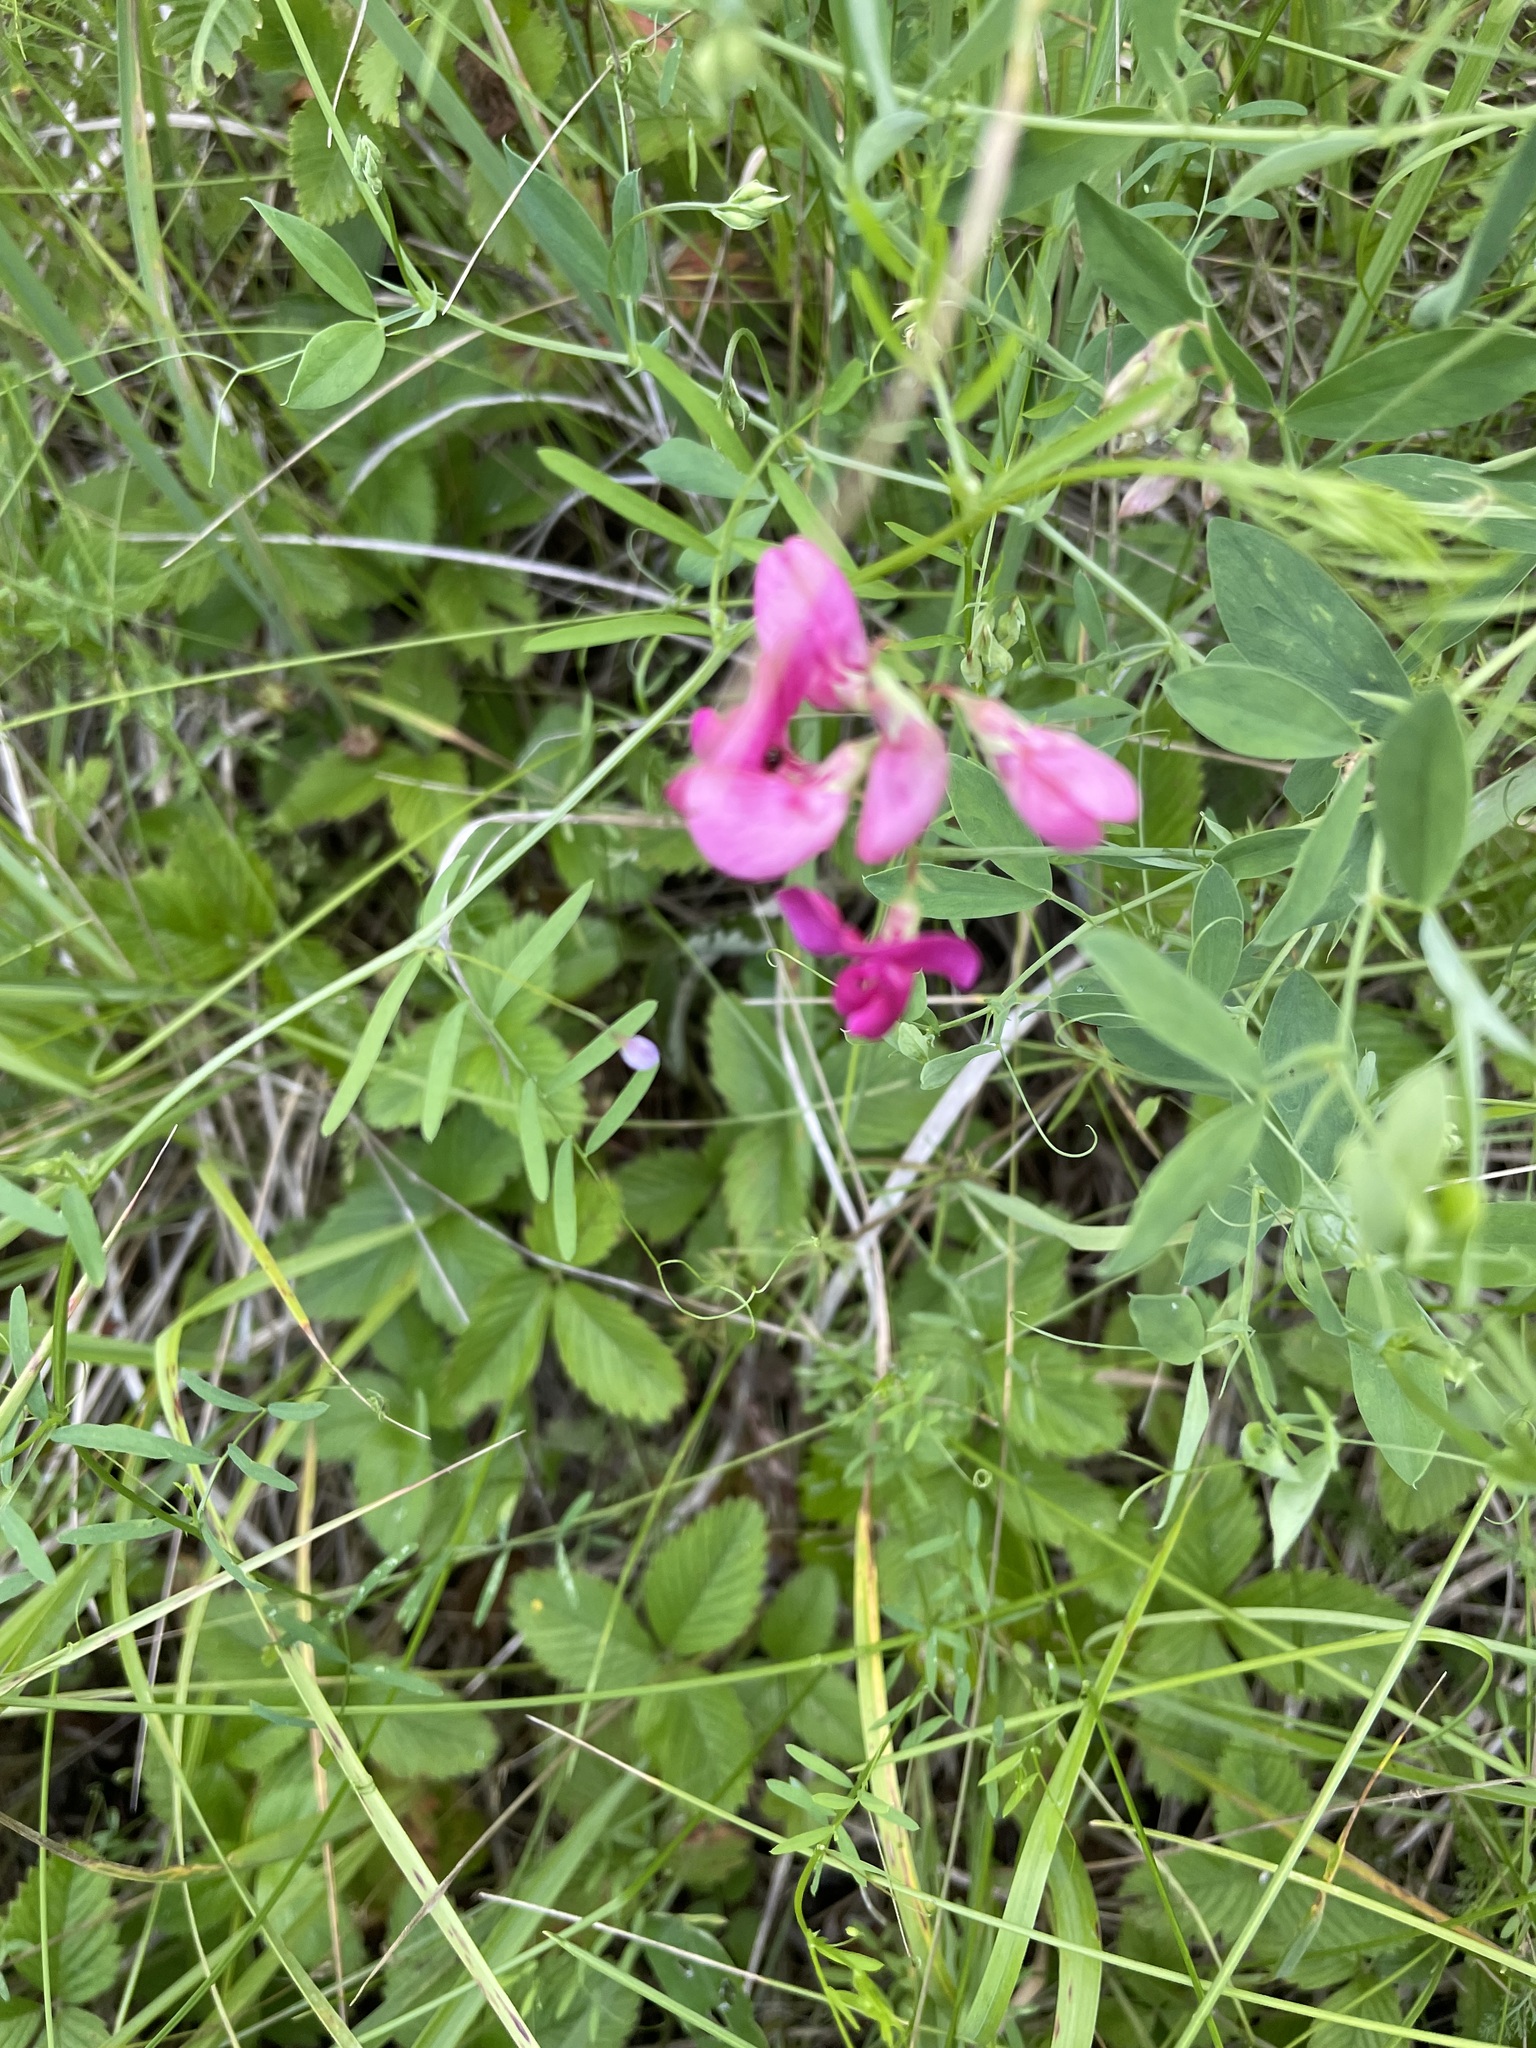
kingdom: Plantae
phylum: Tracheophyta
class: Magnoliopsida
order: Fabales
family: Fabaceae
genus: Lathyrus
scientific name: Lathyrus tuberosus
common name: Tuberous pea
